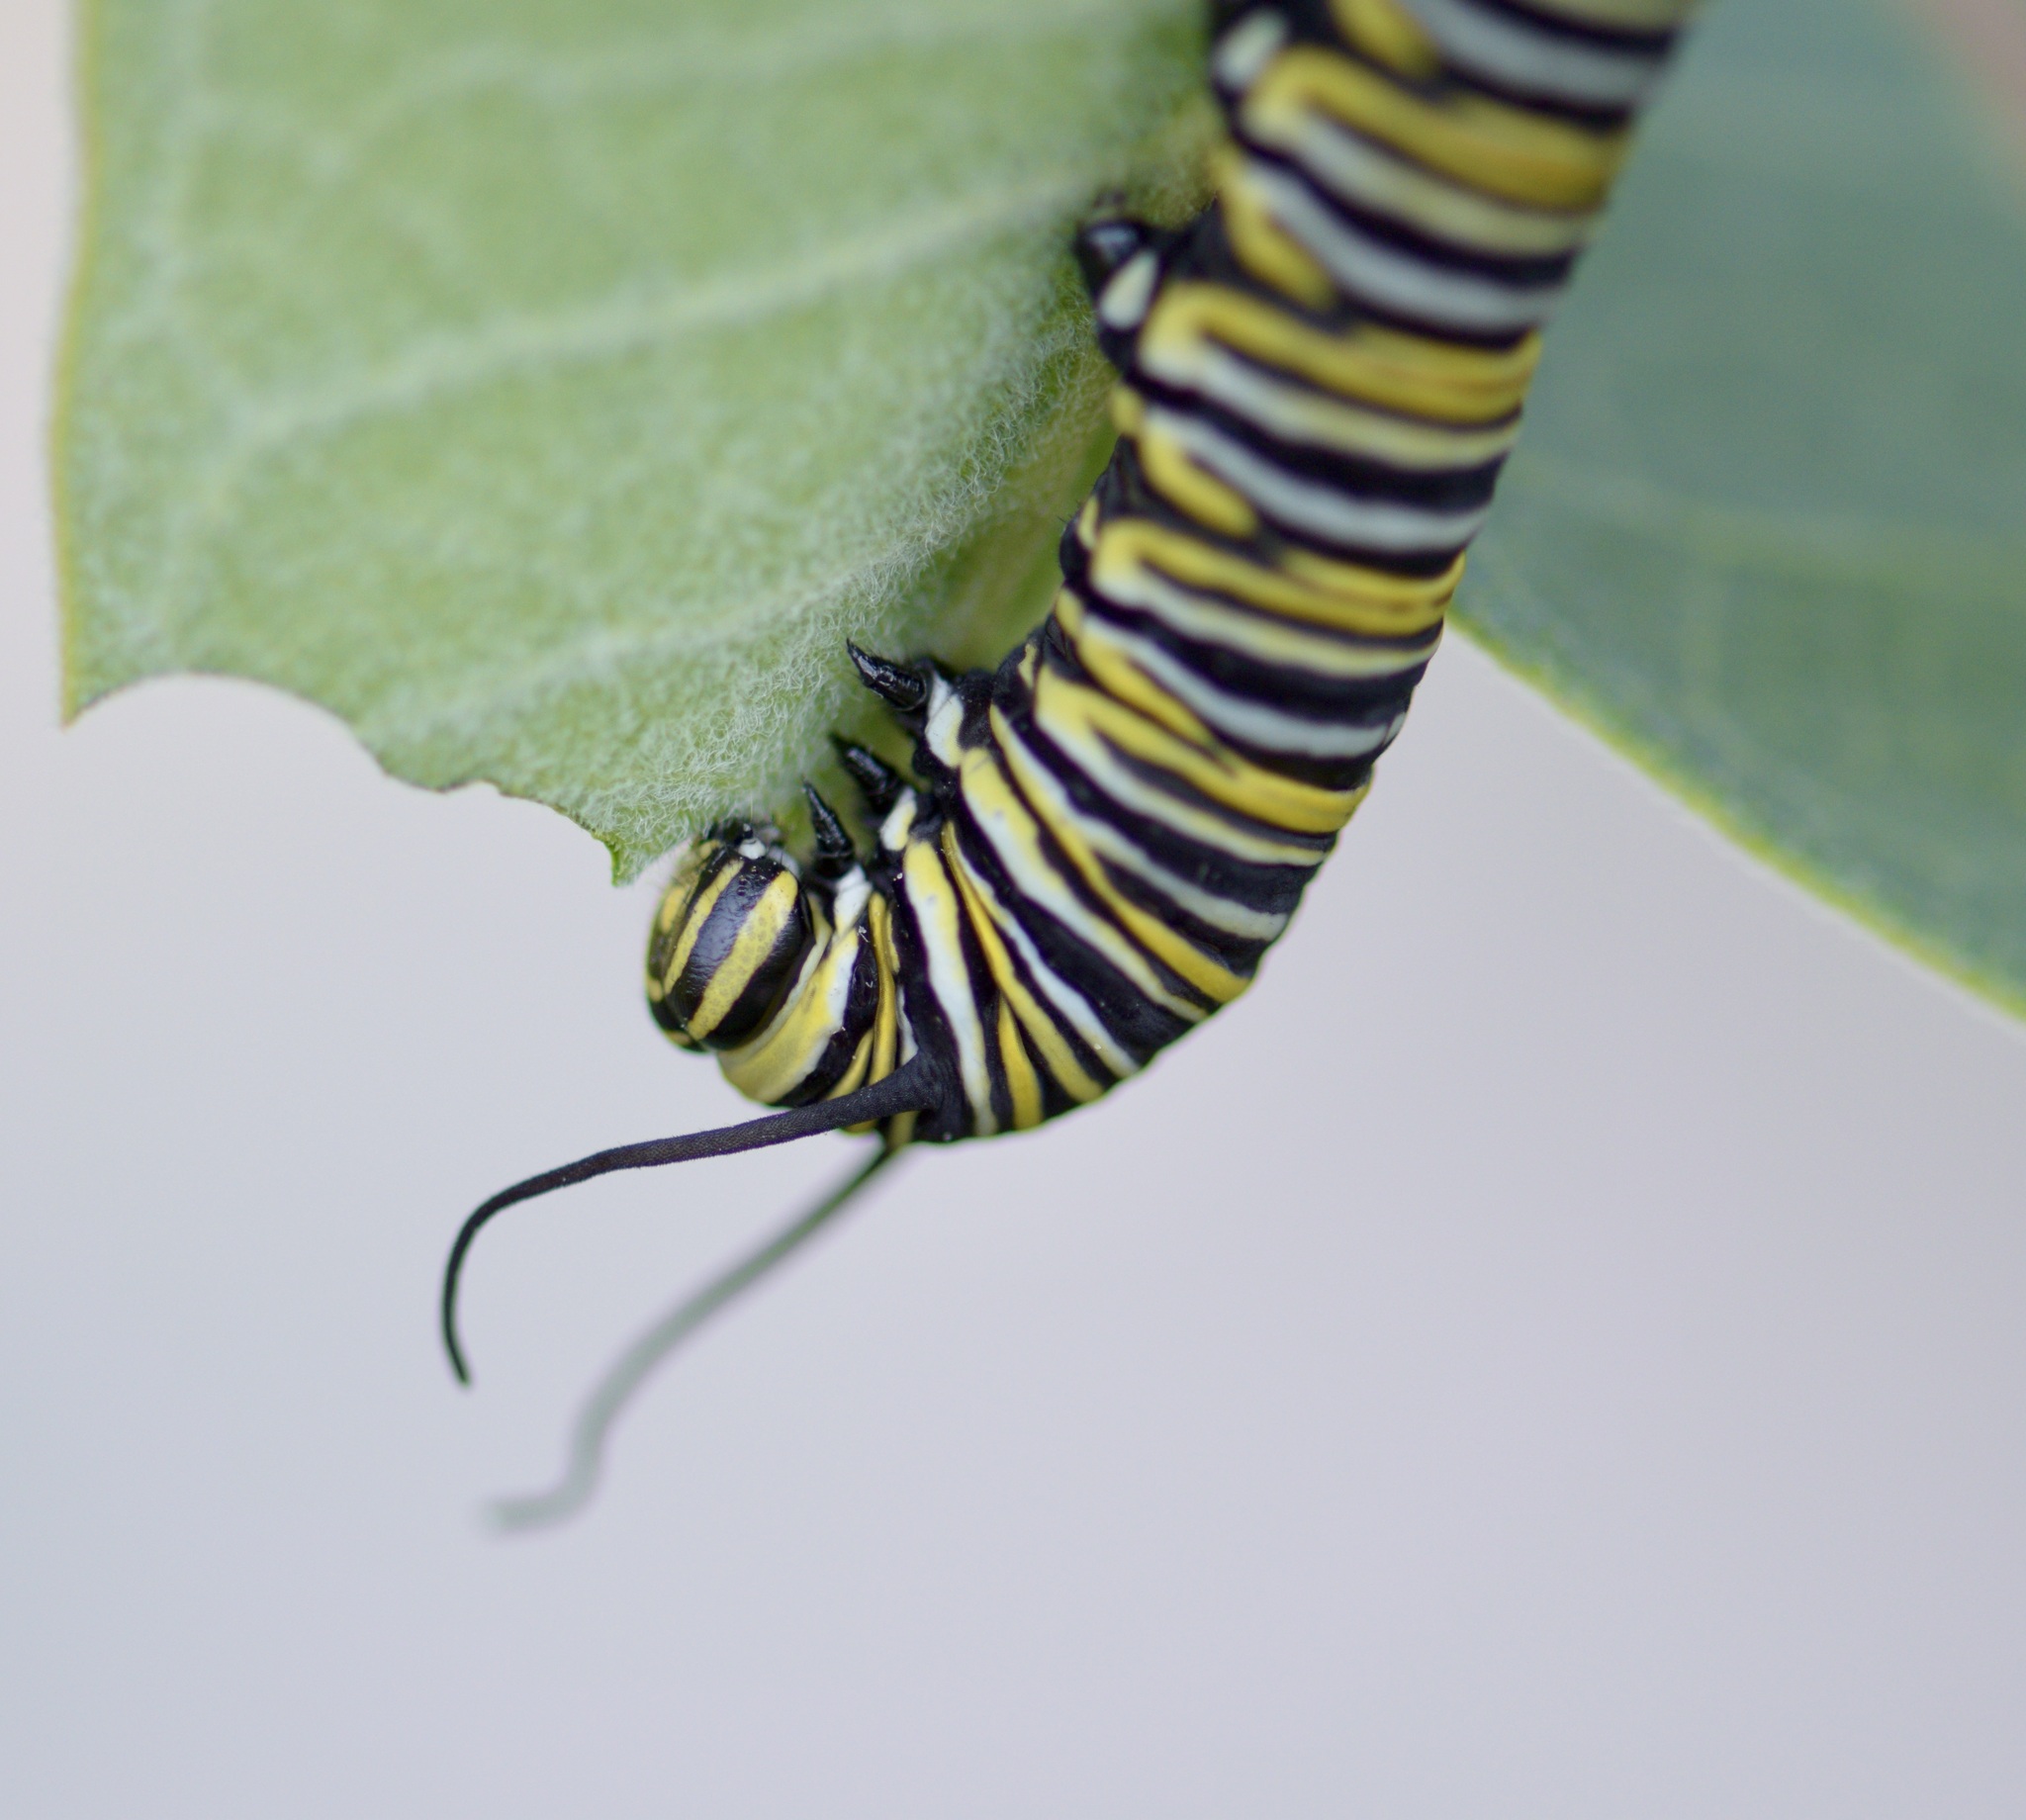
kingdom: Animalia
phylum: Arthropoda
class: Insecta
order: Lepidoptera
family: Nymphalidae
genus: Danaus
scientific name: Danaus plexippus
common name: Monarch
